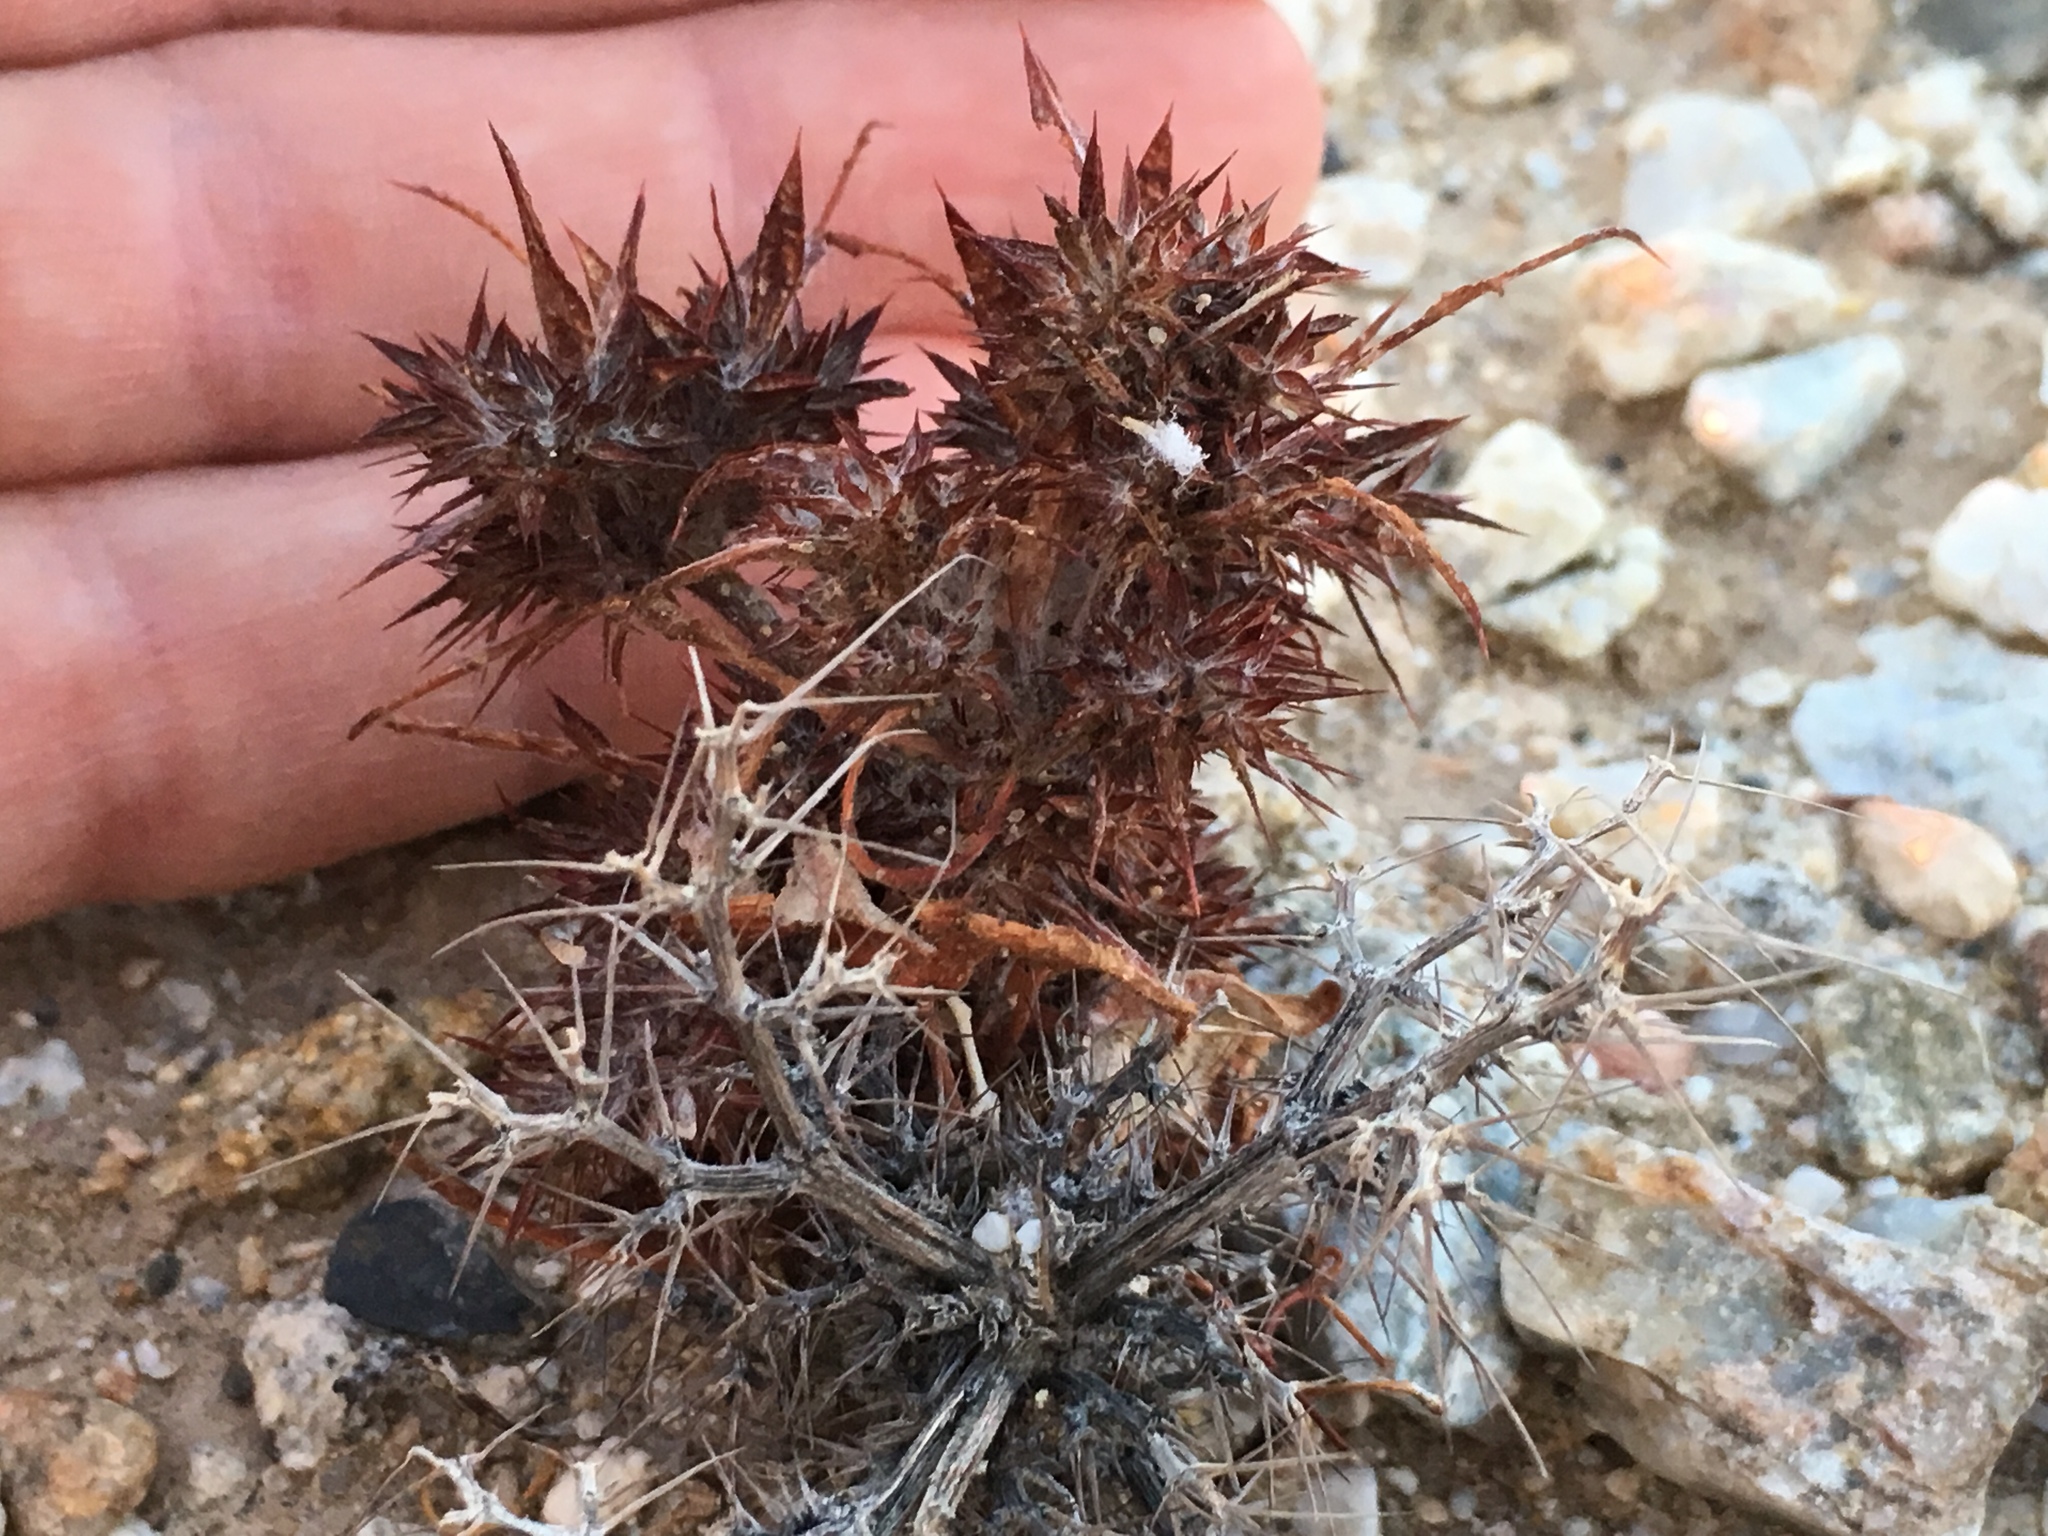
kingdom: Plantae
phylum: Tracheophyta
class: Magnoliopsida
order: Caryophyllales
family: Polygonaceae
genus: Chorizanthe
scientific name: Chorizanthe rigida
